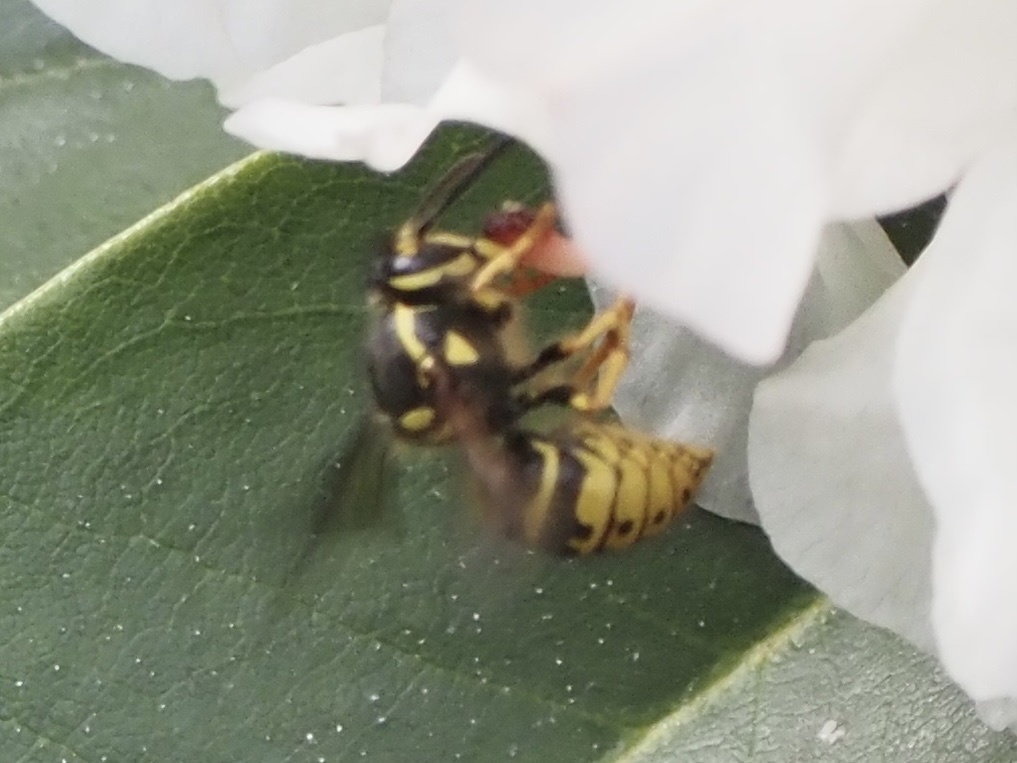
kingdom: Animalia
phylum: Arthropoda
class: Insecta
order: Hymenoptera
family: Vespidae
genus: Dolichovespula
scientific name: Dolichovespula arenaria
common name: Aerial yellowjacket
